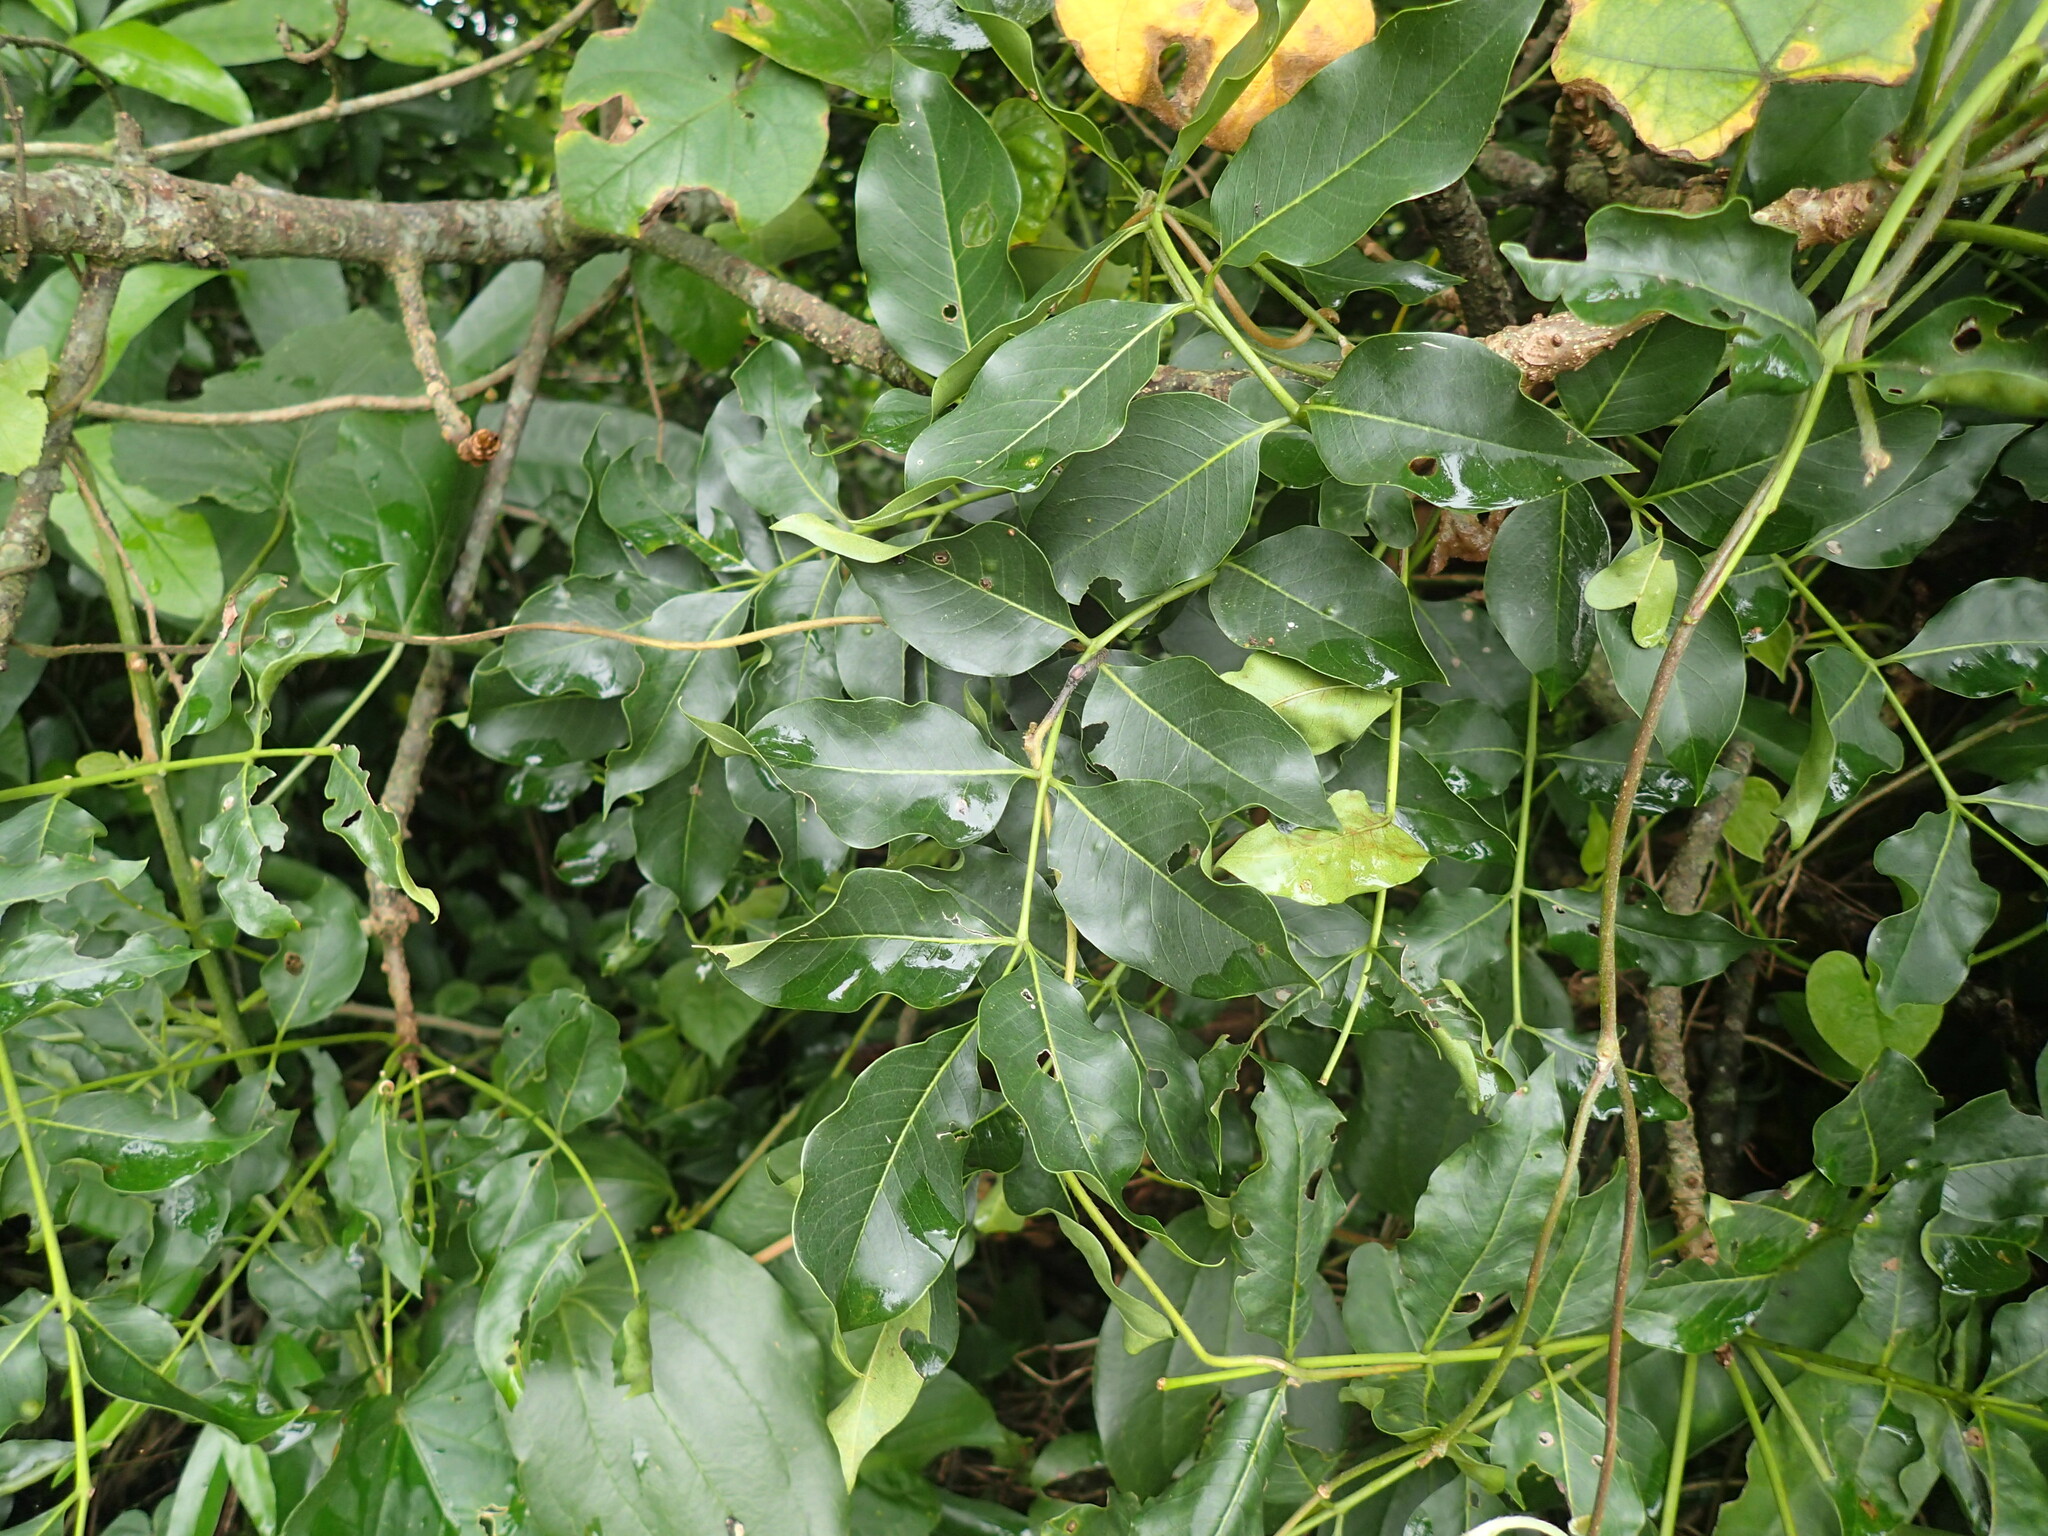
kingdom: Plantae
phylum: Tracheophyta
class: Magnoliopsida
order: Sapindales
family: Meliaceae
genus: Ekebergia
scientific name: Ekebergia capensis
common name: Cape-ash
